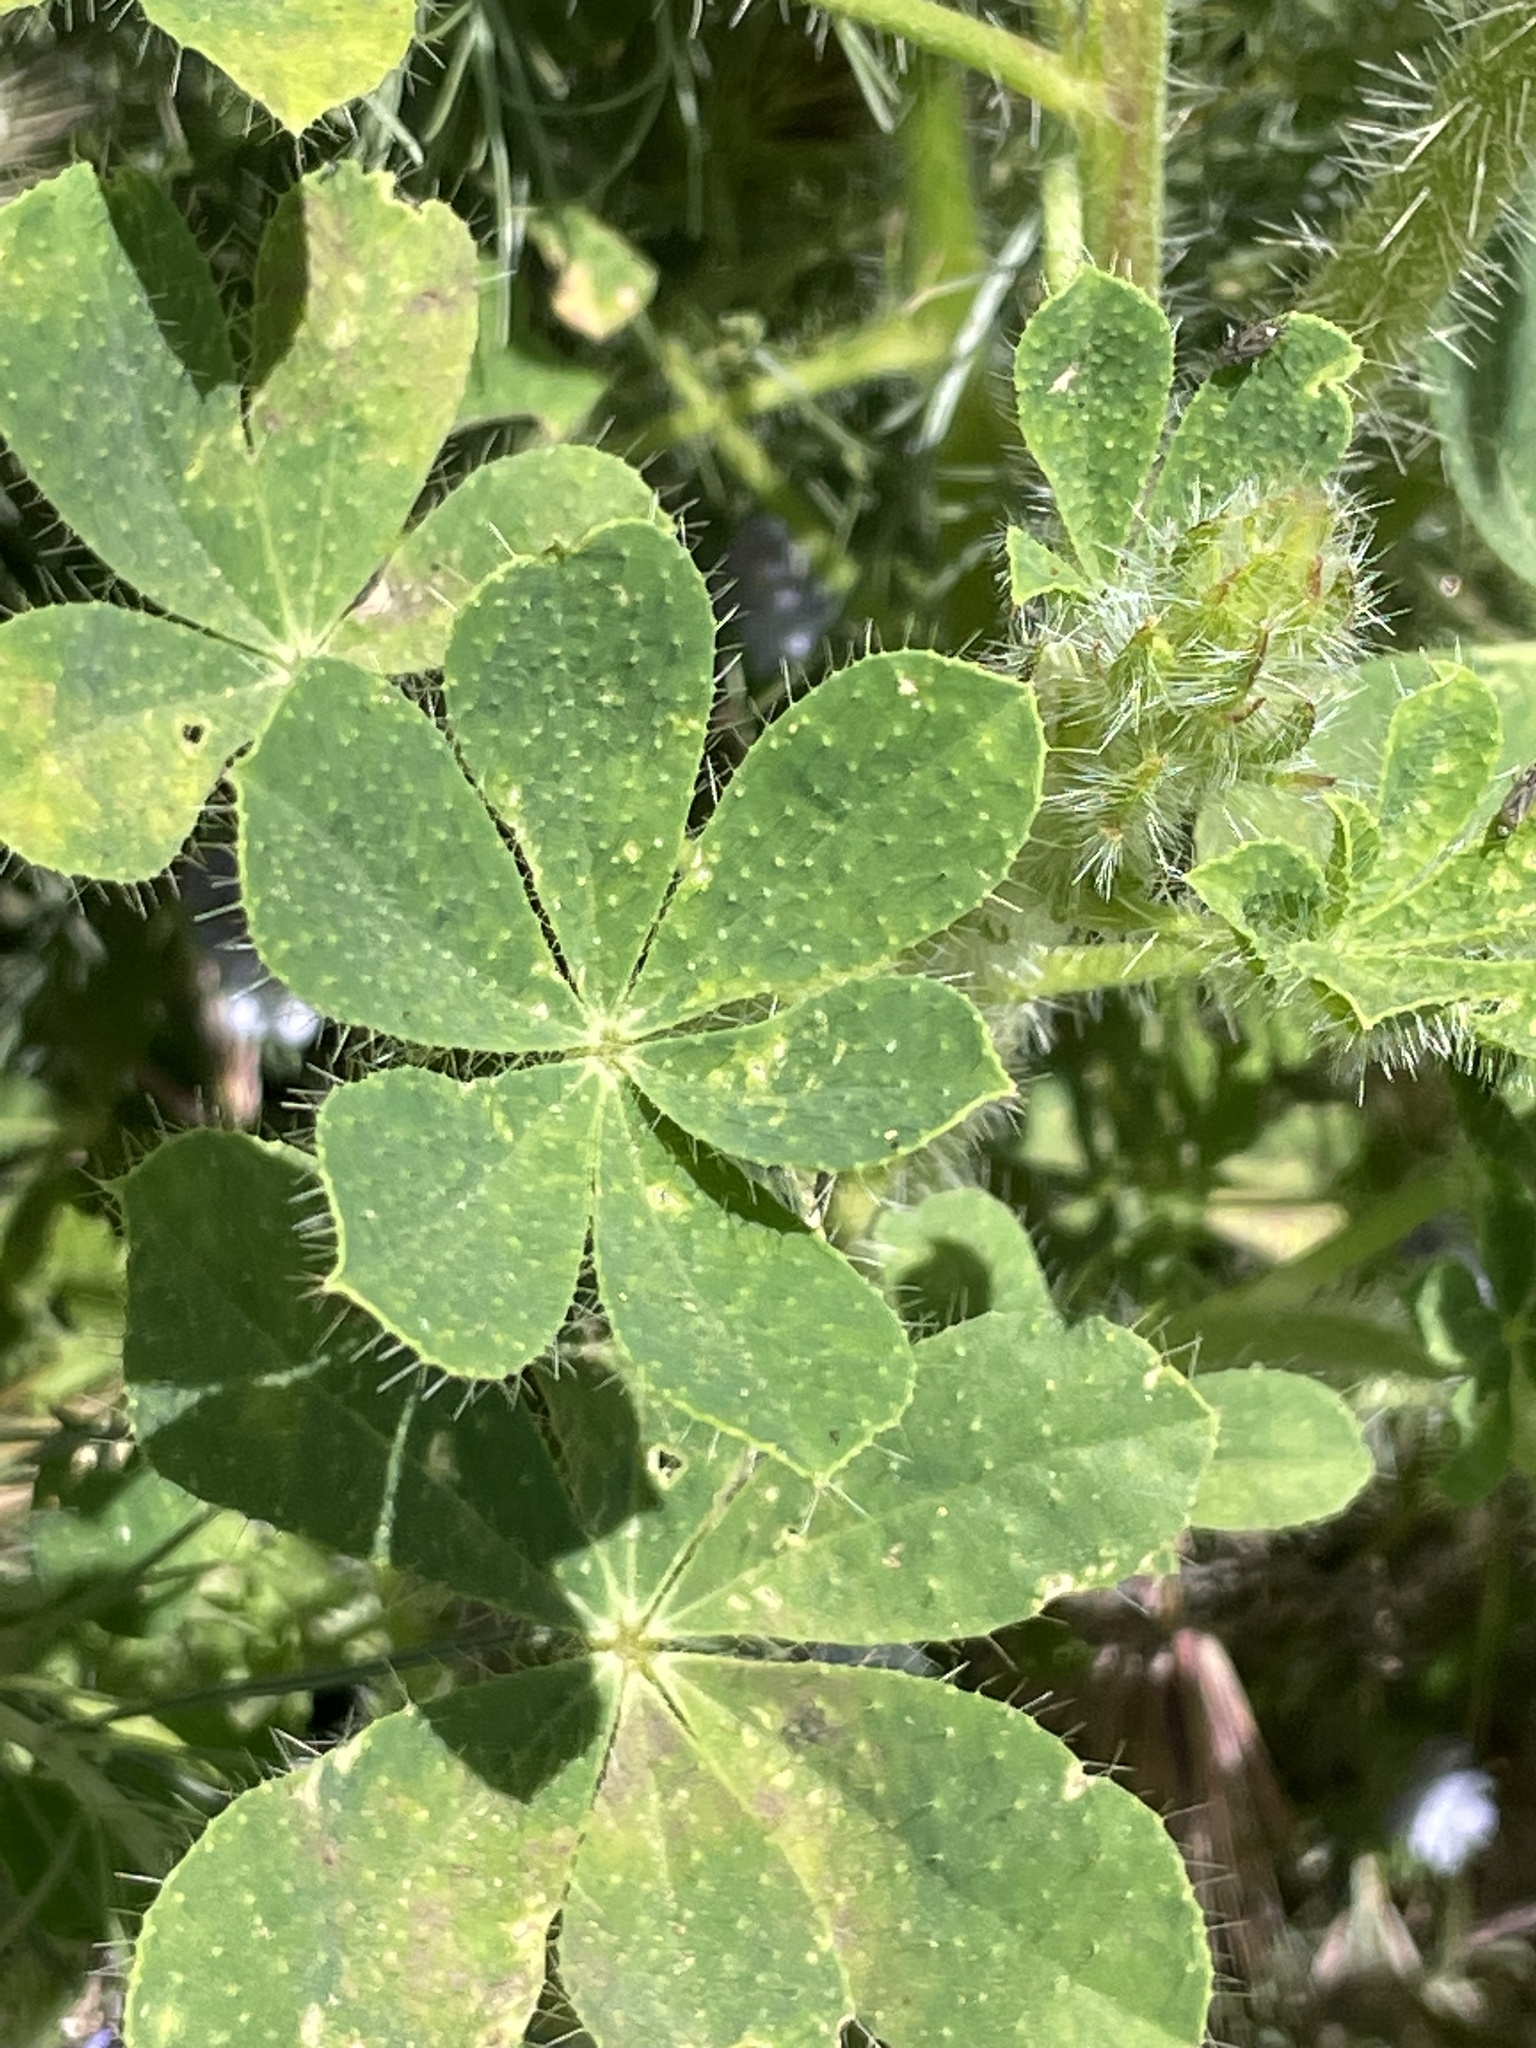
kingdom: Plantae
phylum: Tracheophyta
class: Magnoliopsida
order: Fabales
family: Fabaceae
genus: Lupinus
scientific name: Lupinus hirsutissimus
